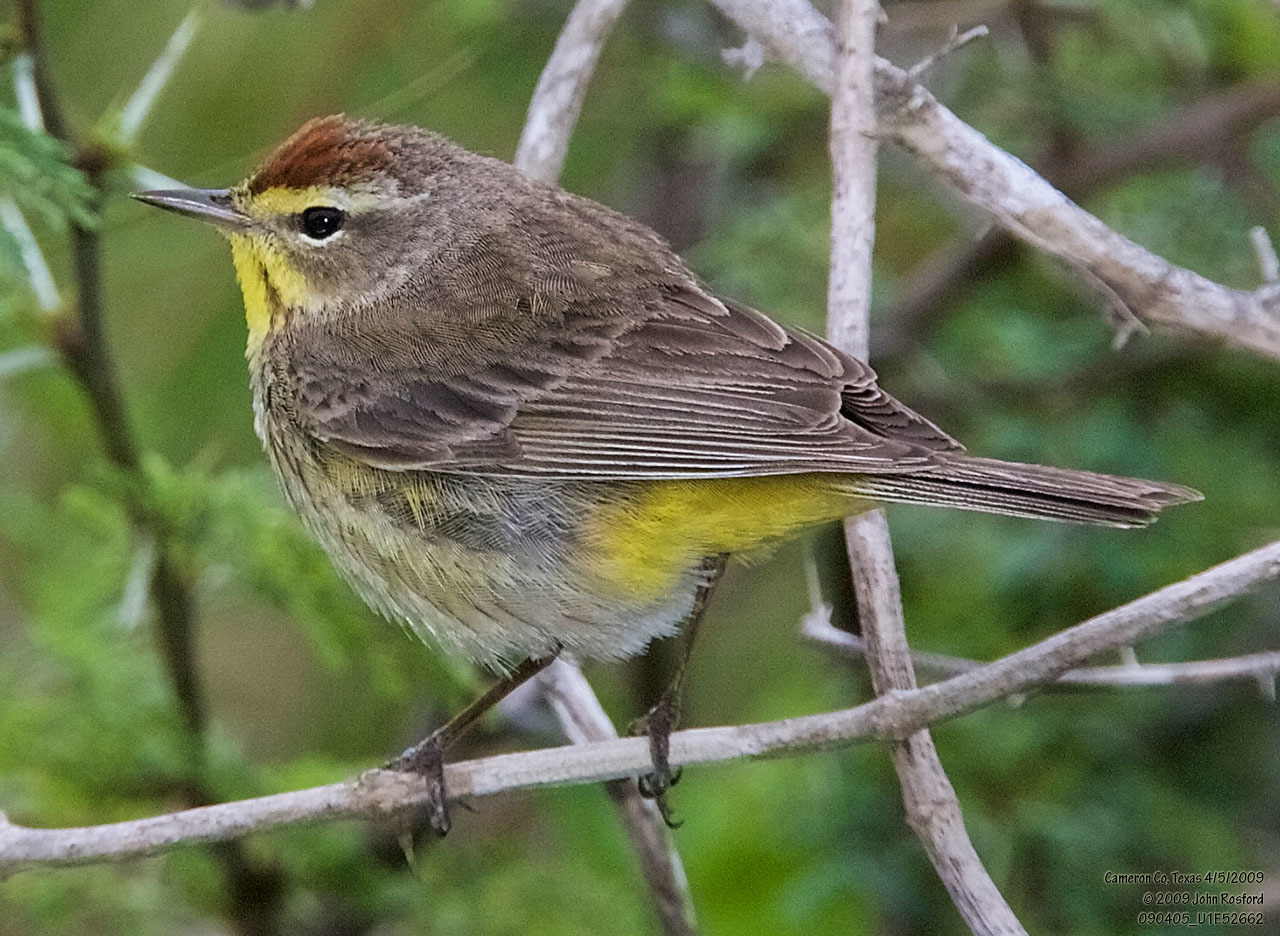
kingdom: Animalia
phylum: Chordata
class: Aves
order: Passeriformes
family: Parulidae
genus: Setophaga
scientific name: Setophaga palmarum
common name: Palm warbler
